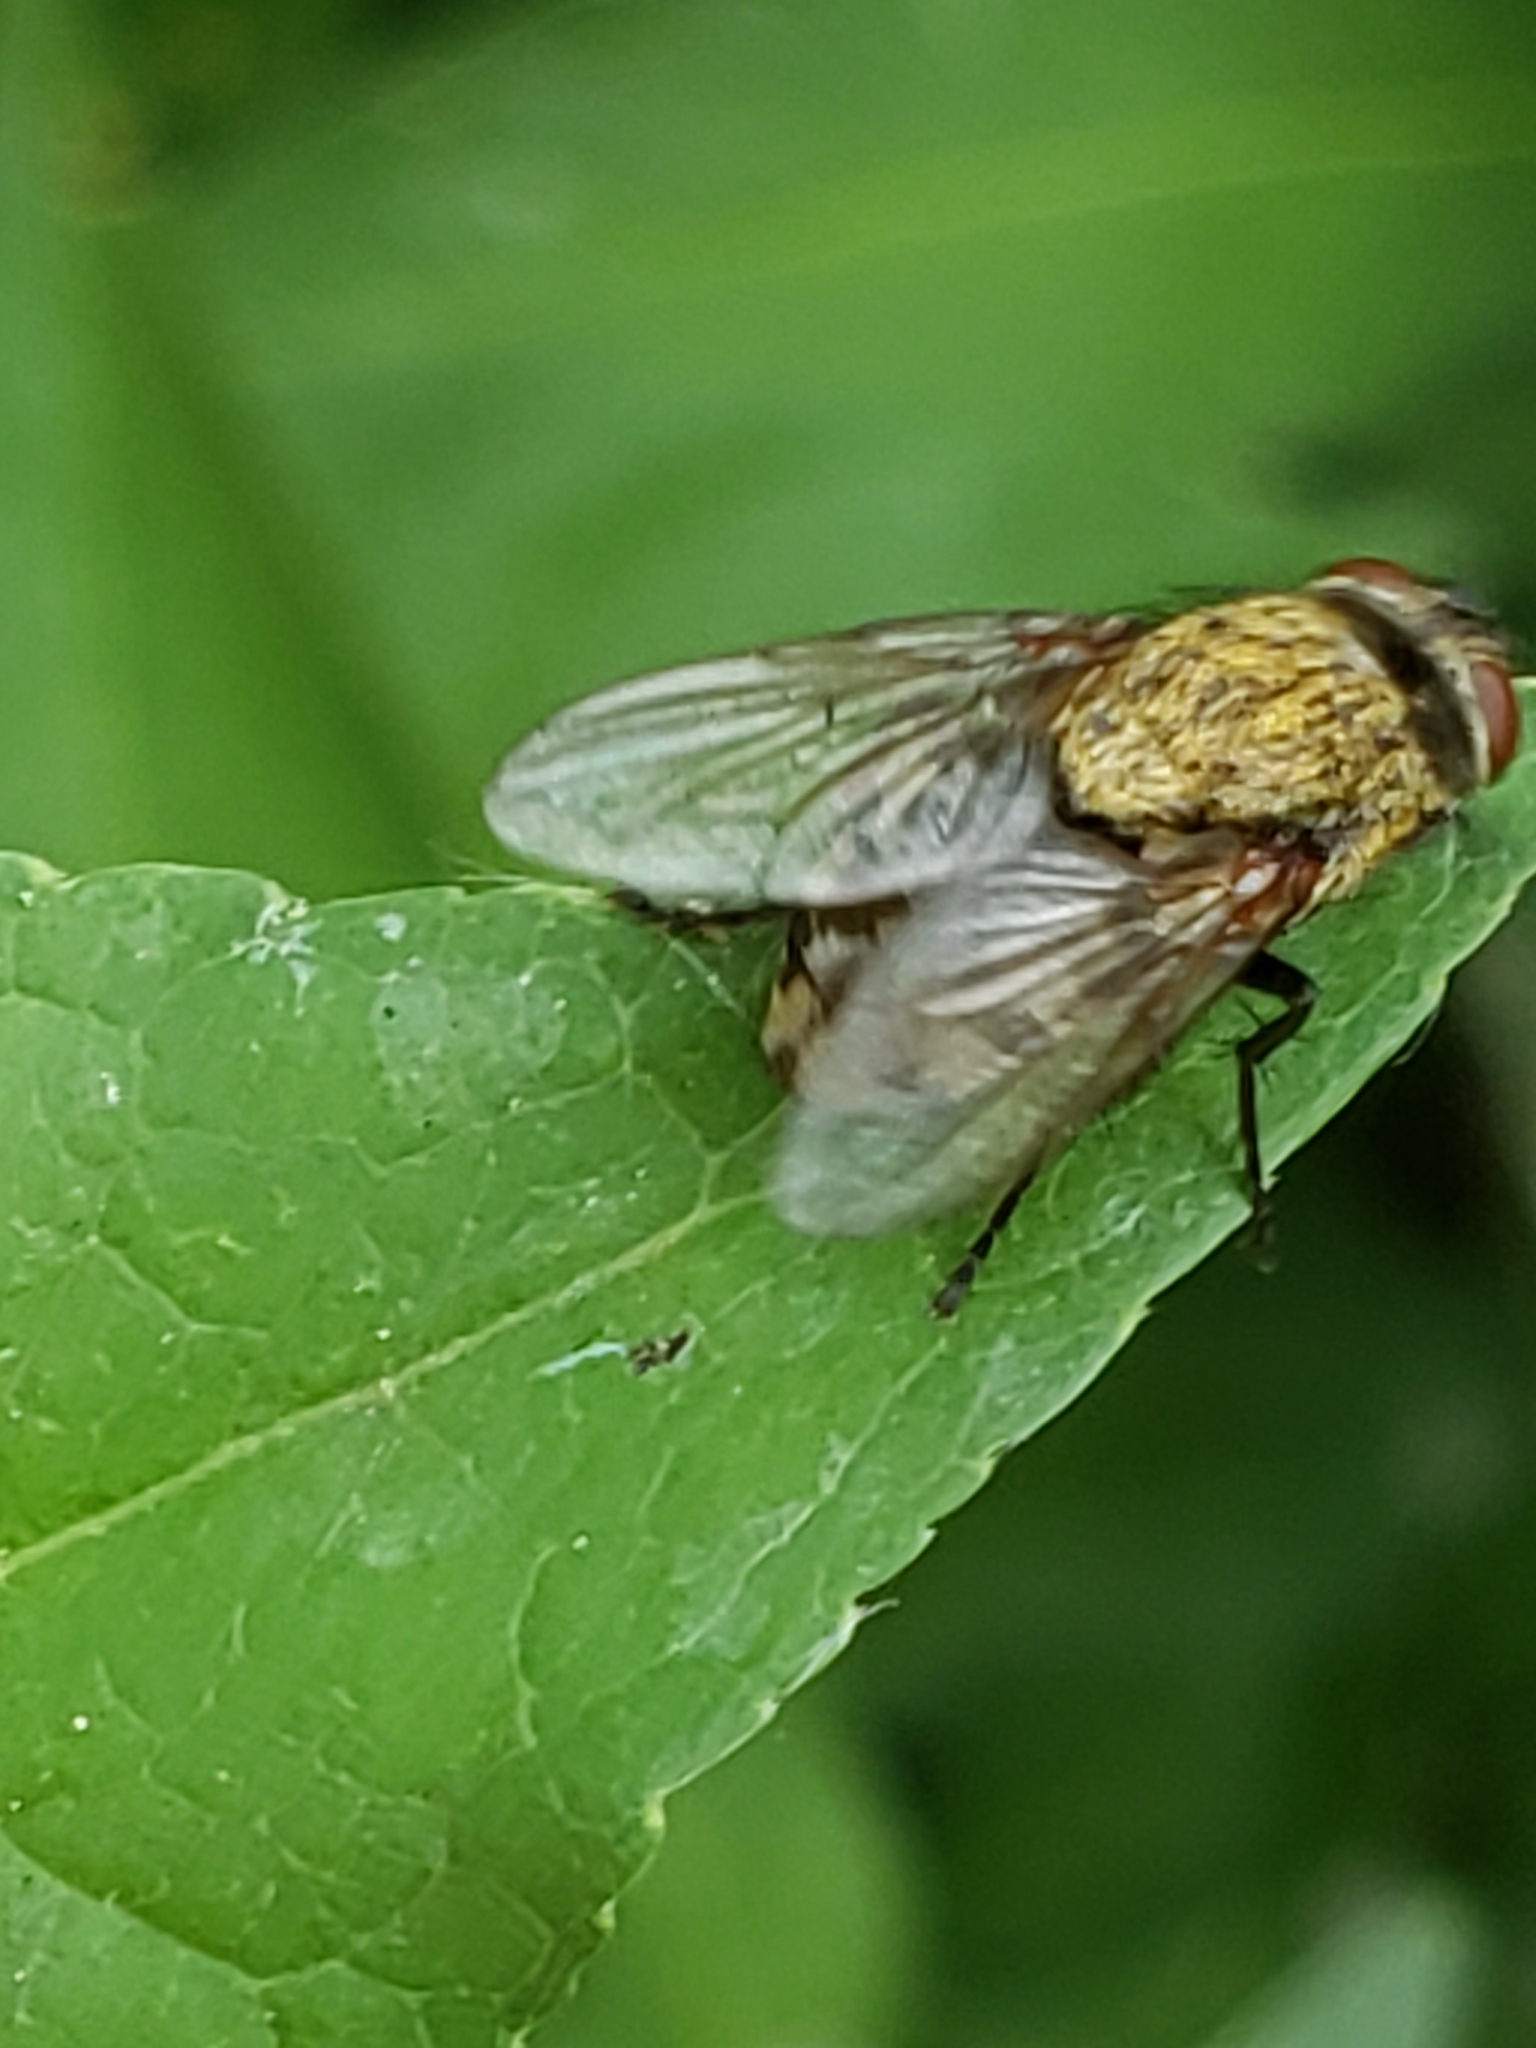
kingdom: Animalia
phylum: Arthropoda
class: Insecta
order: Diptera
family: Polleniidae
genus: Pollenia
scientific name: Pollenia
